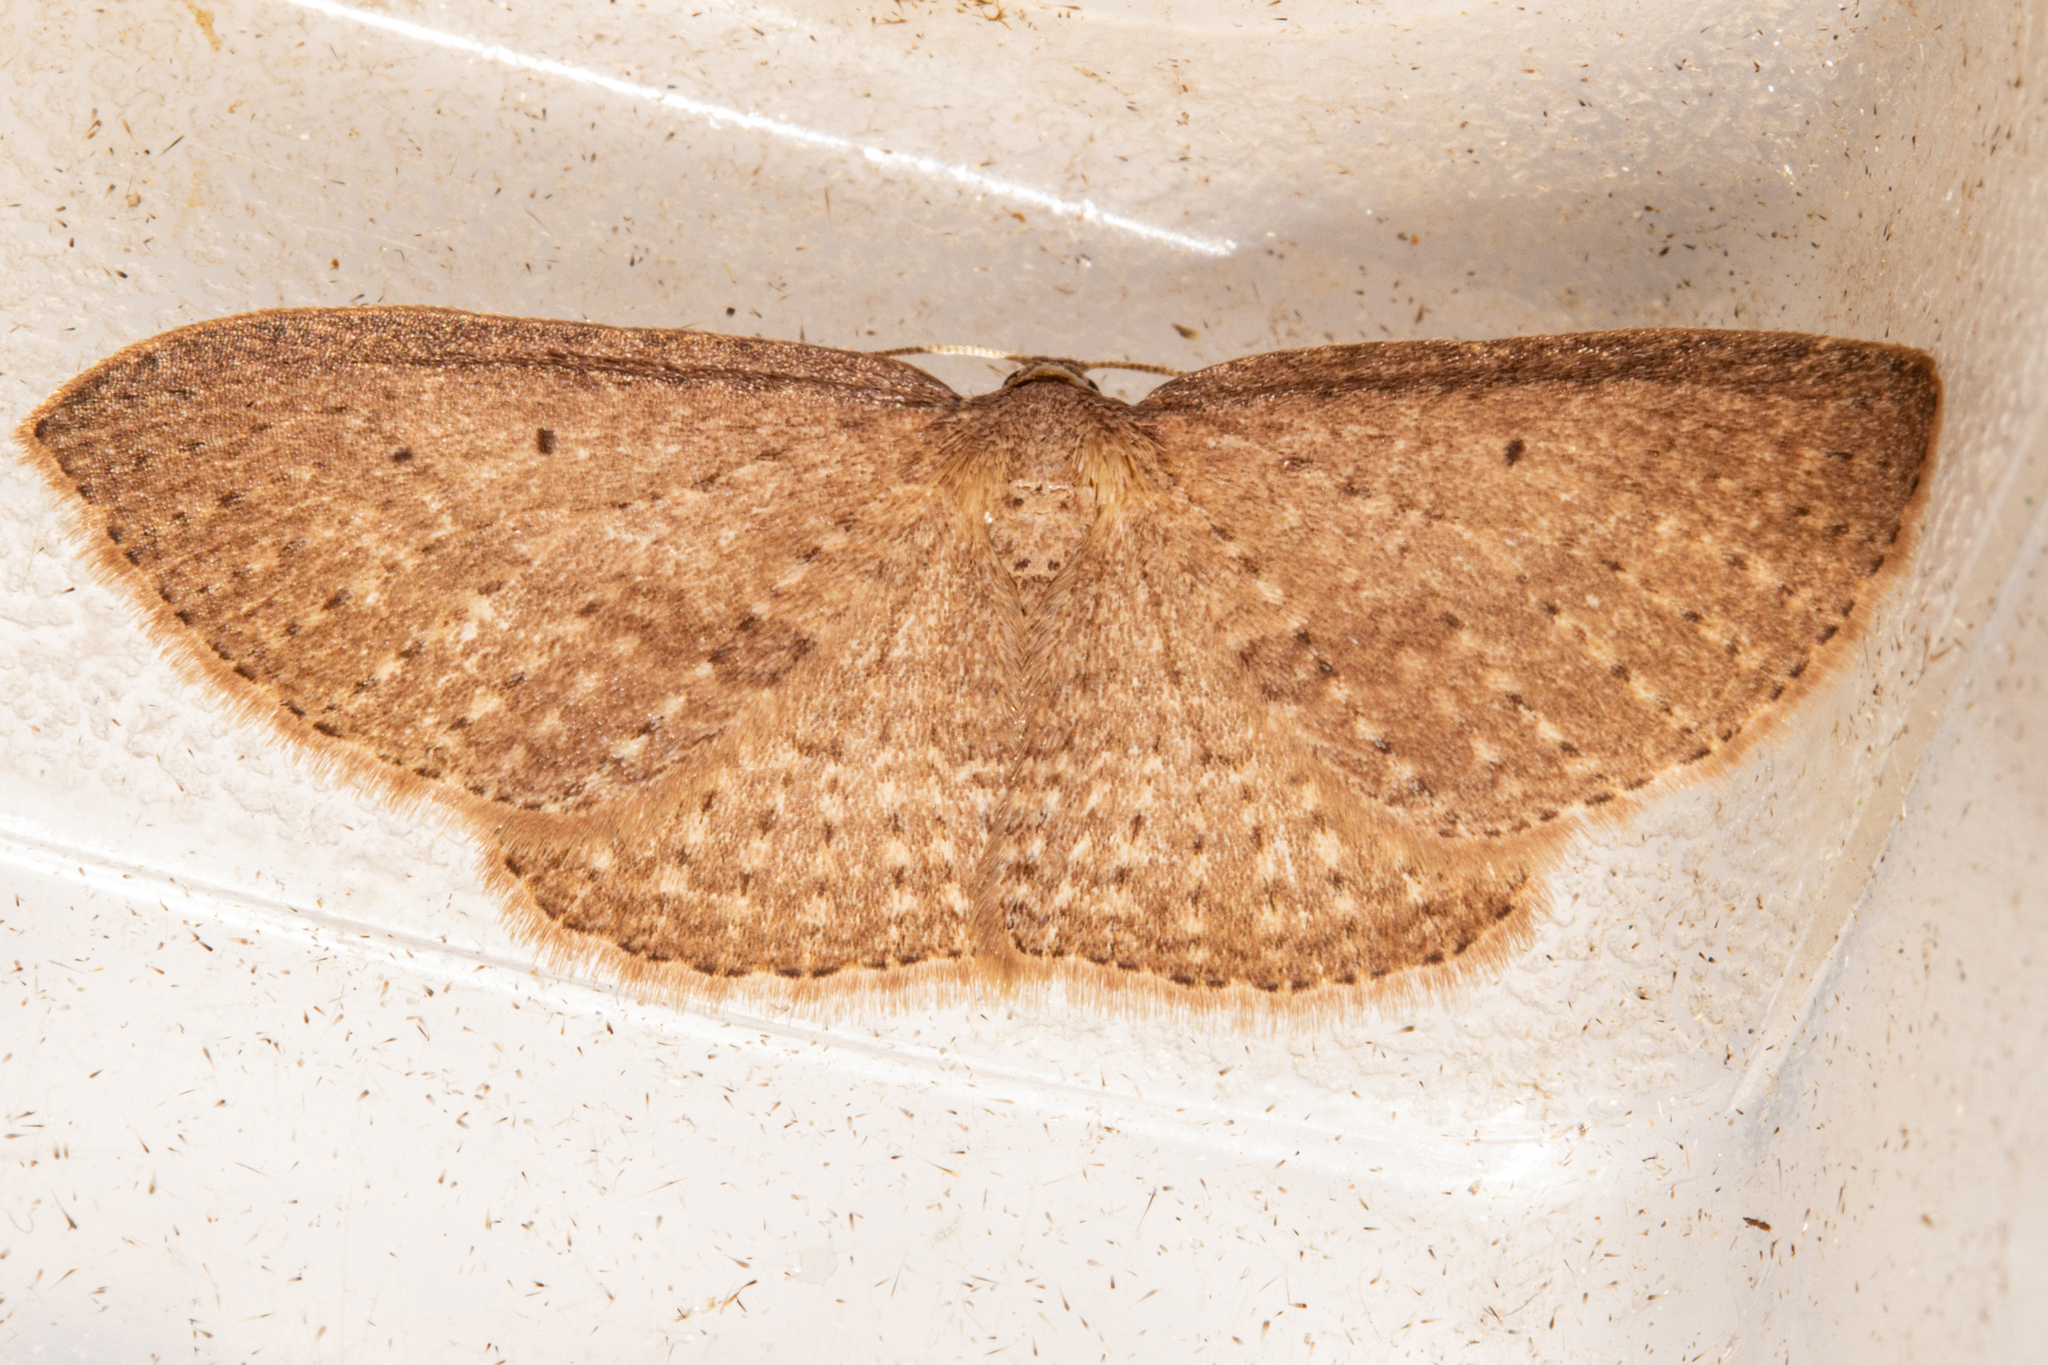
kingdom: Animalia
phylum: Arthropoda
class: Insecta
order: Lepidoptera
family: Geometridae
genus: Poecilasthena
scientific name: Poecilasthena schistaria
